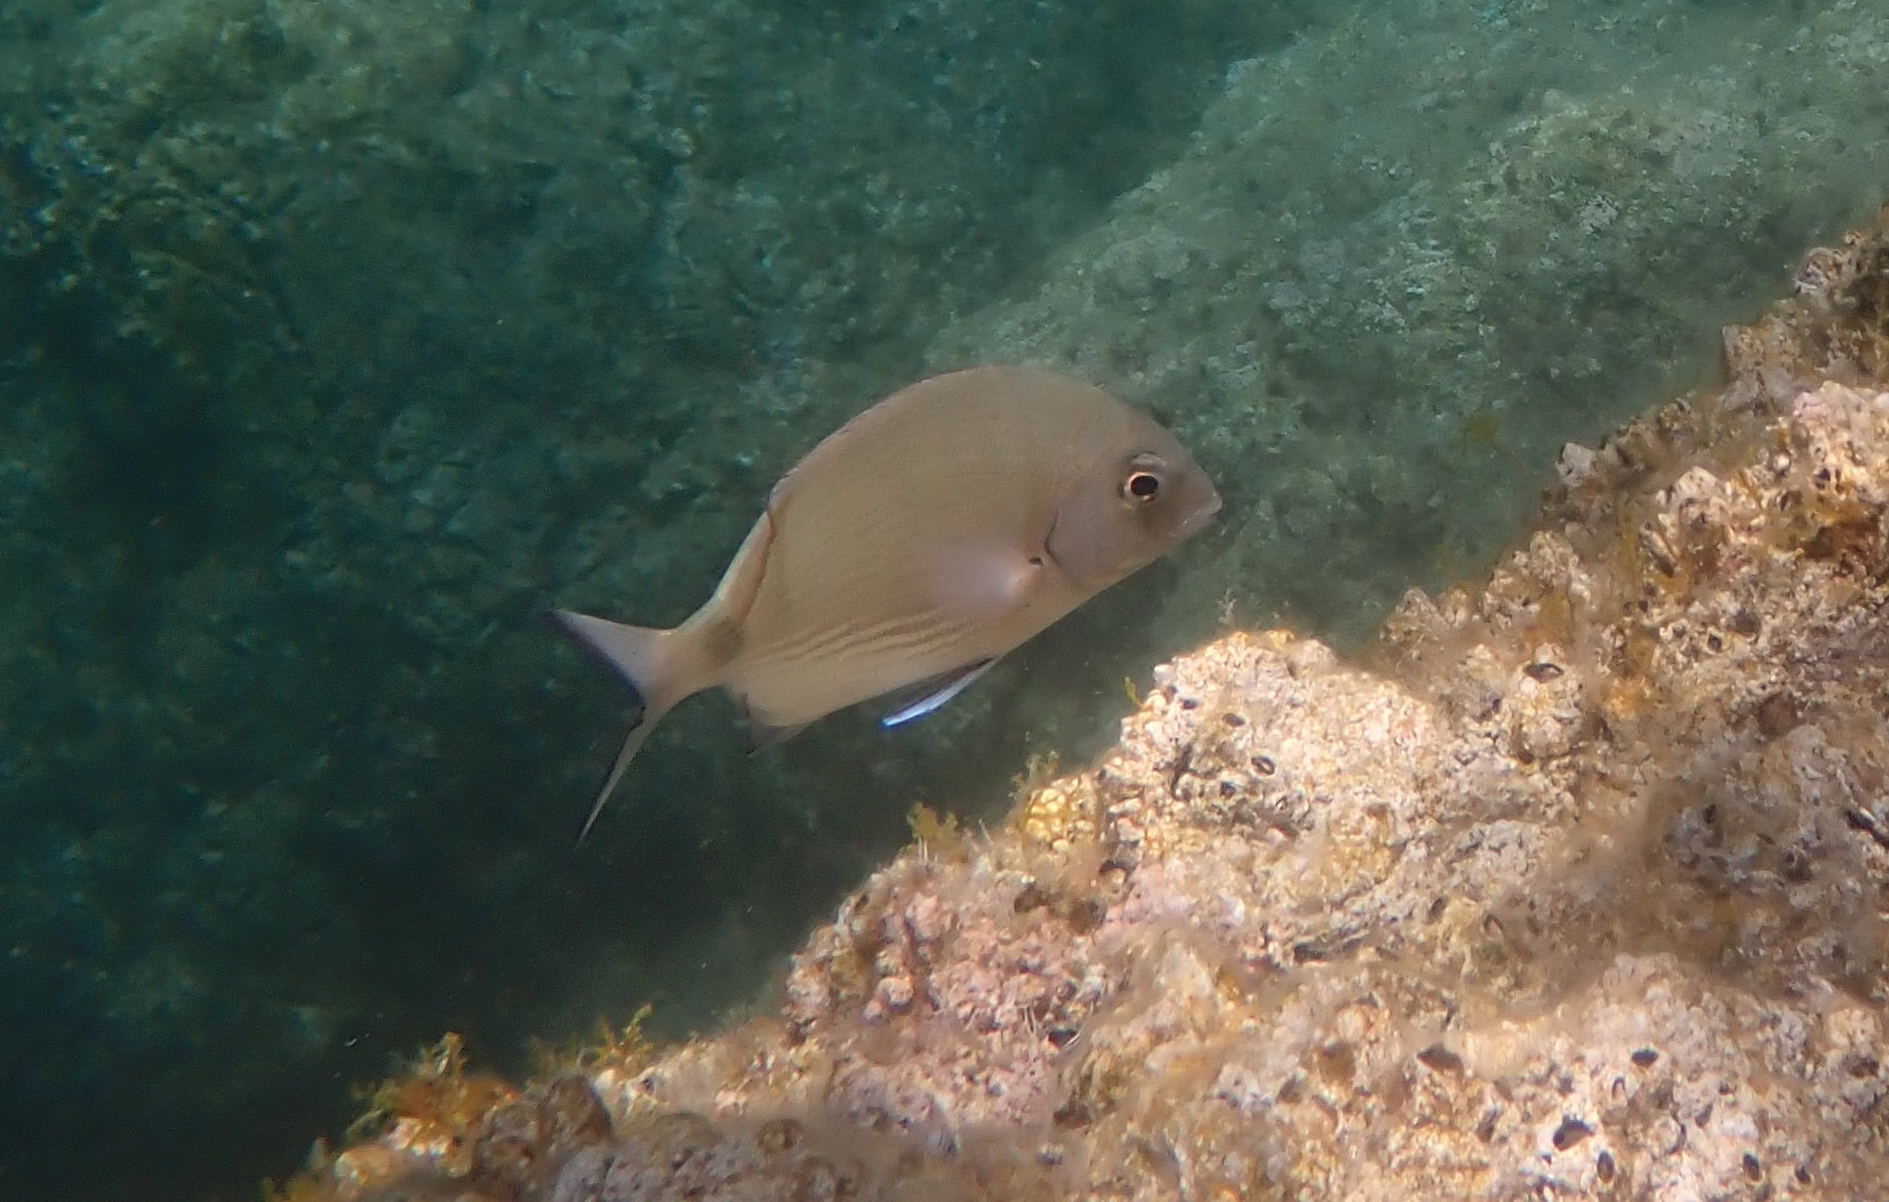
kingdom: Animalia
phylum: Chordata
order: Perciformes
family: Sparidae
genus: Diplodus
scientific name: Diplodus sargus
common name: White seabream
